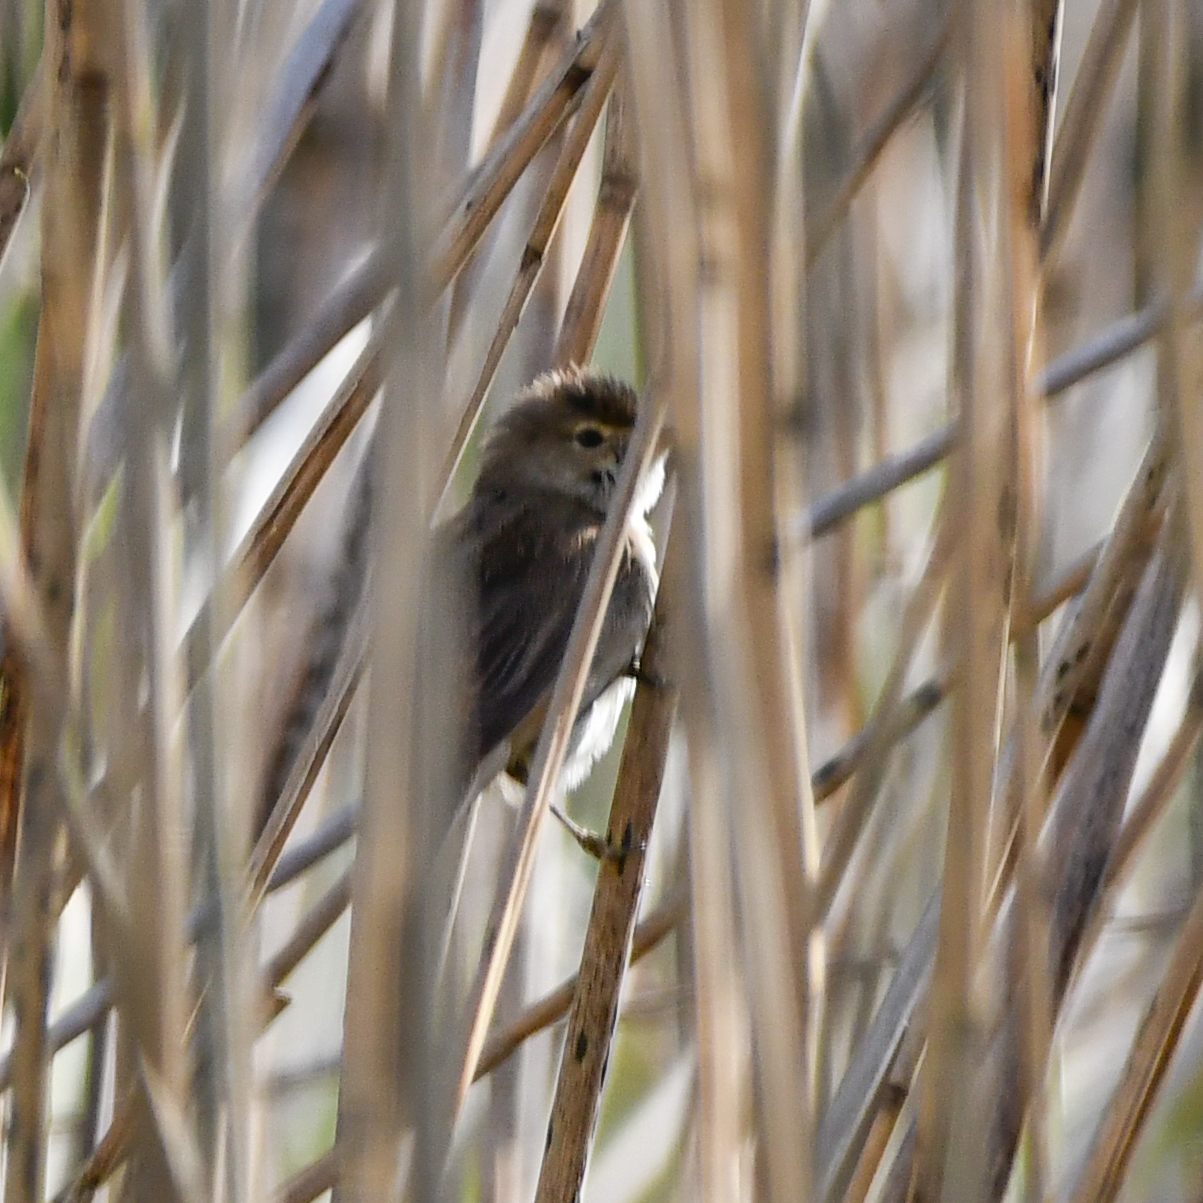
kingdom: Animalia
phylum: Chordata
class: Aves
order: Passeriformes
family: Acrocephalidae
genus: Acrocephalus
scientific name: Acrocephalus scirpaceus
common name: Eurasian reed warbler
